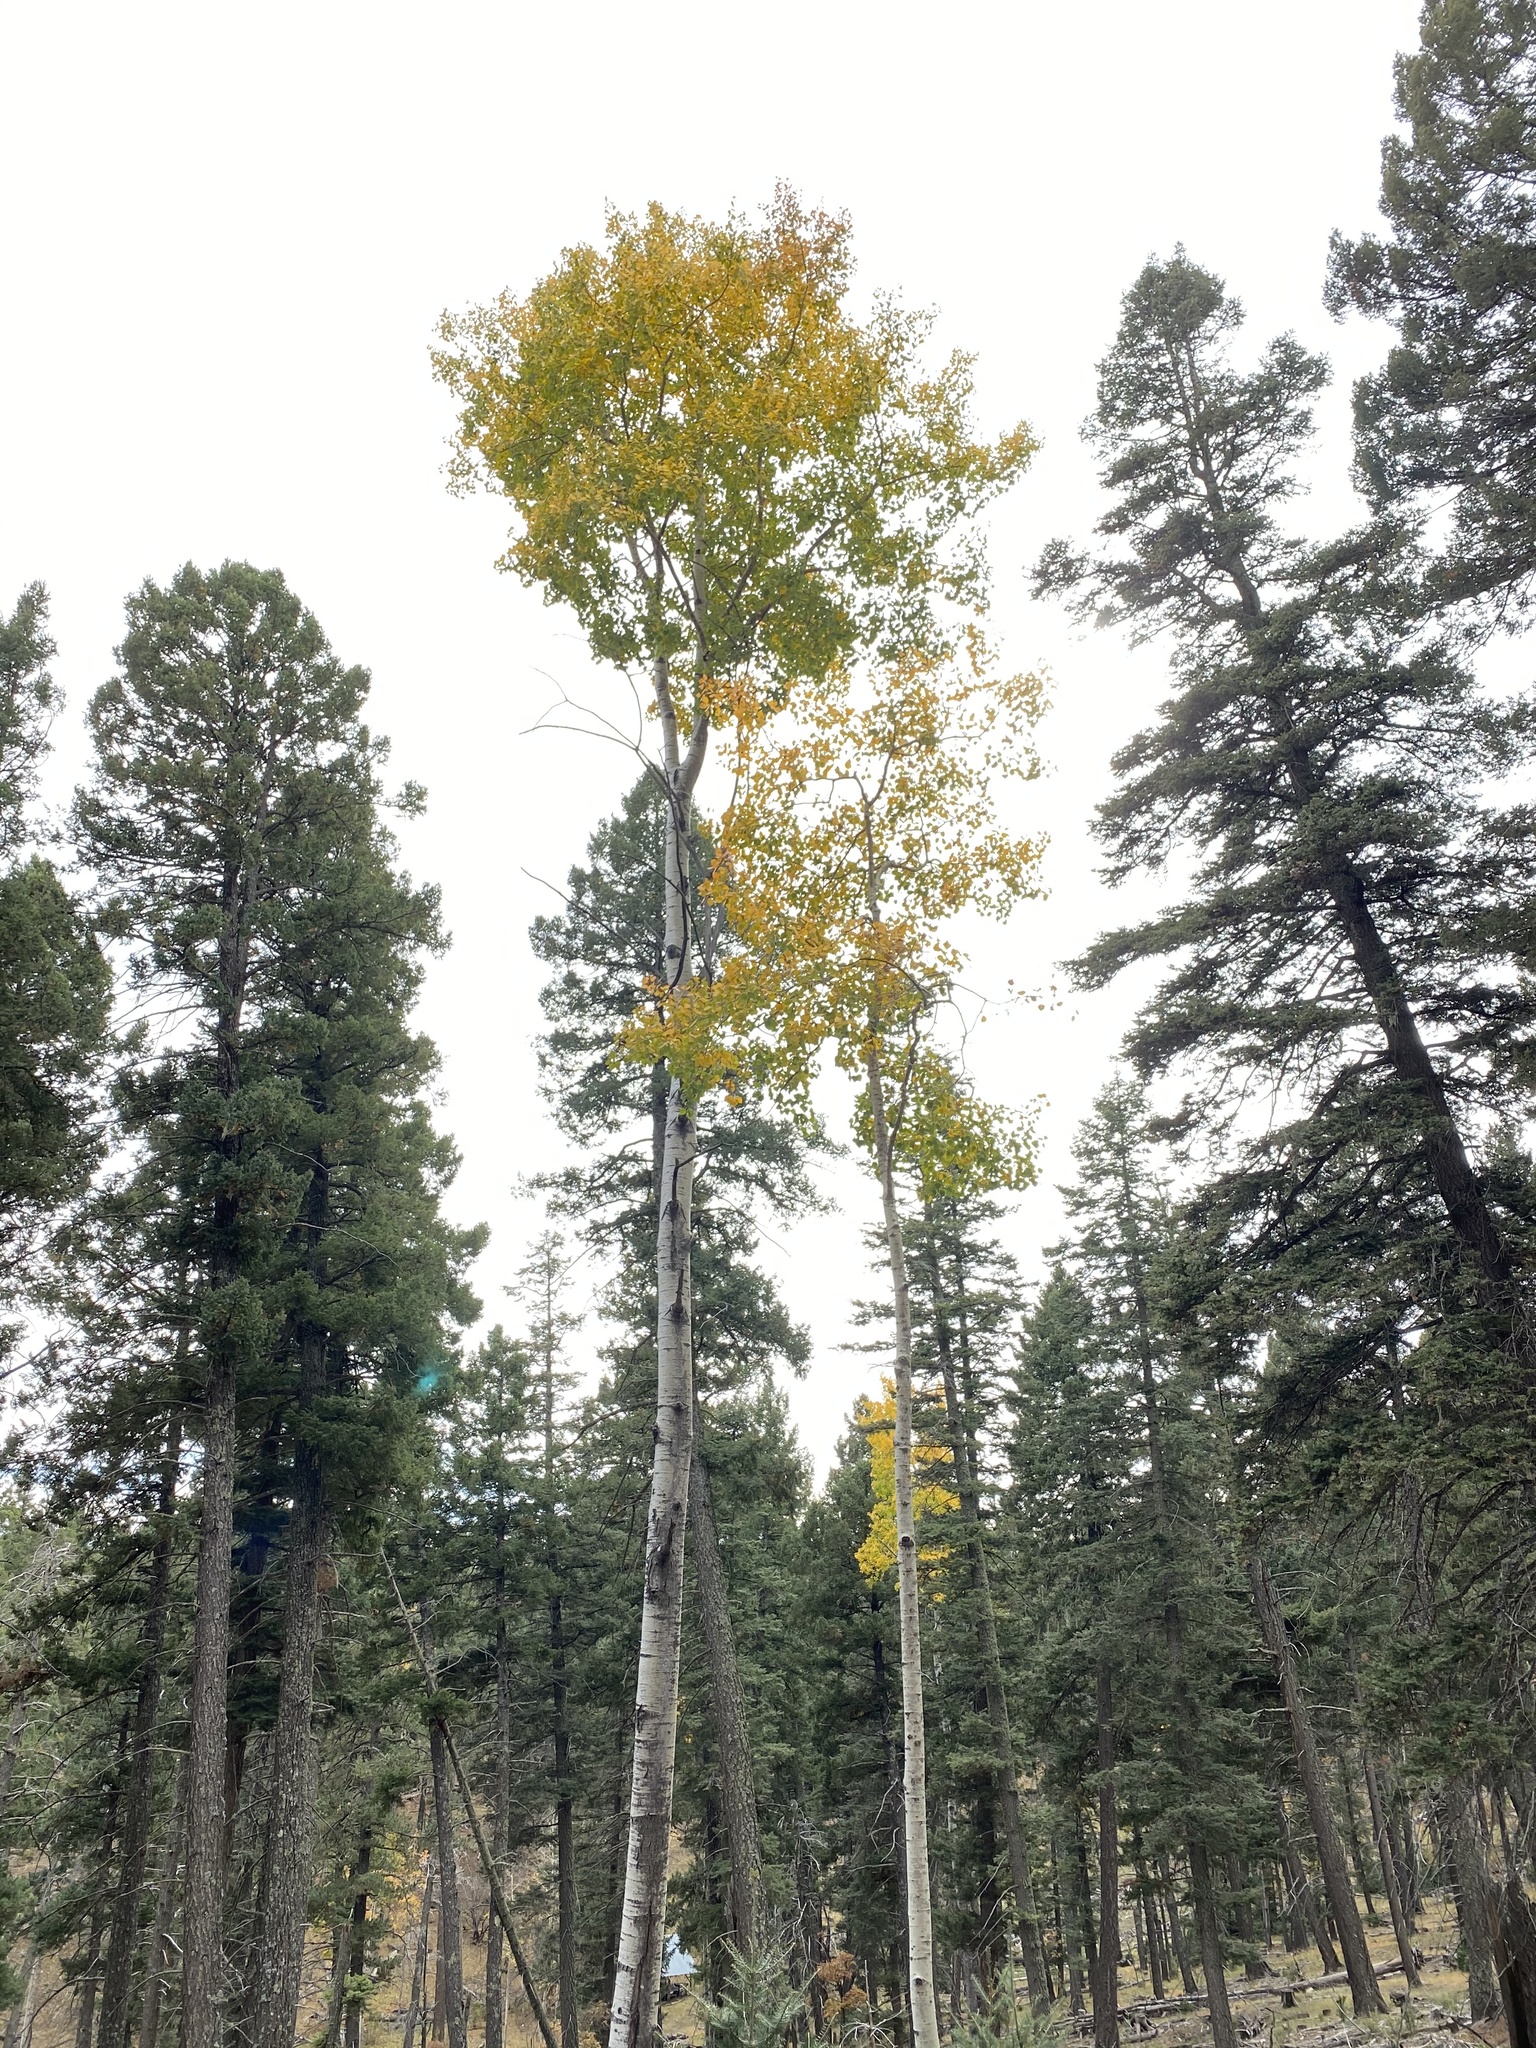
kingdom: Plantae
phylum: Tracheophyta
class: Magnoliopsida
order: Malpighiales
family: Salicaceae
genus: Populus
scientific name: Populus tremuloides
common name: Quaking aspen
